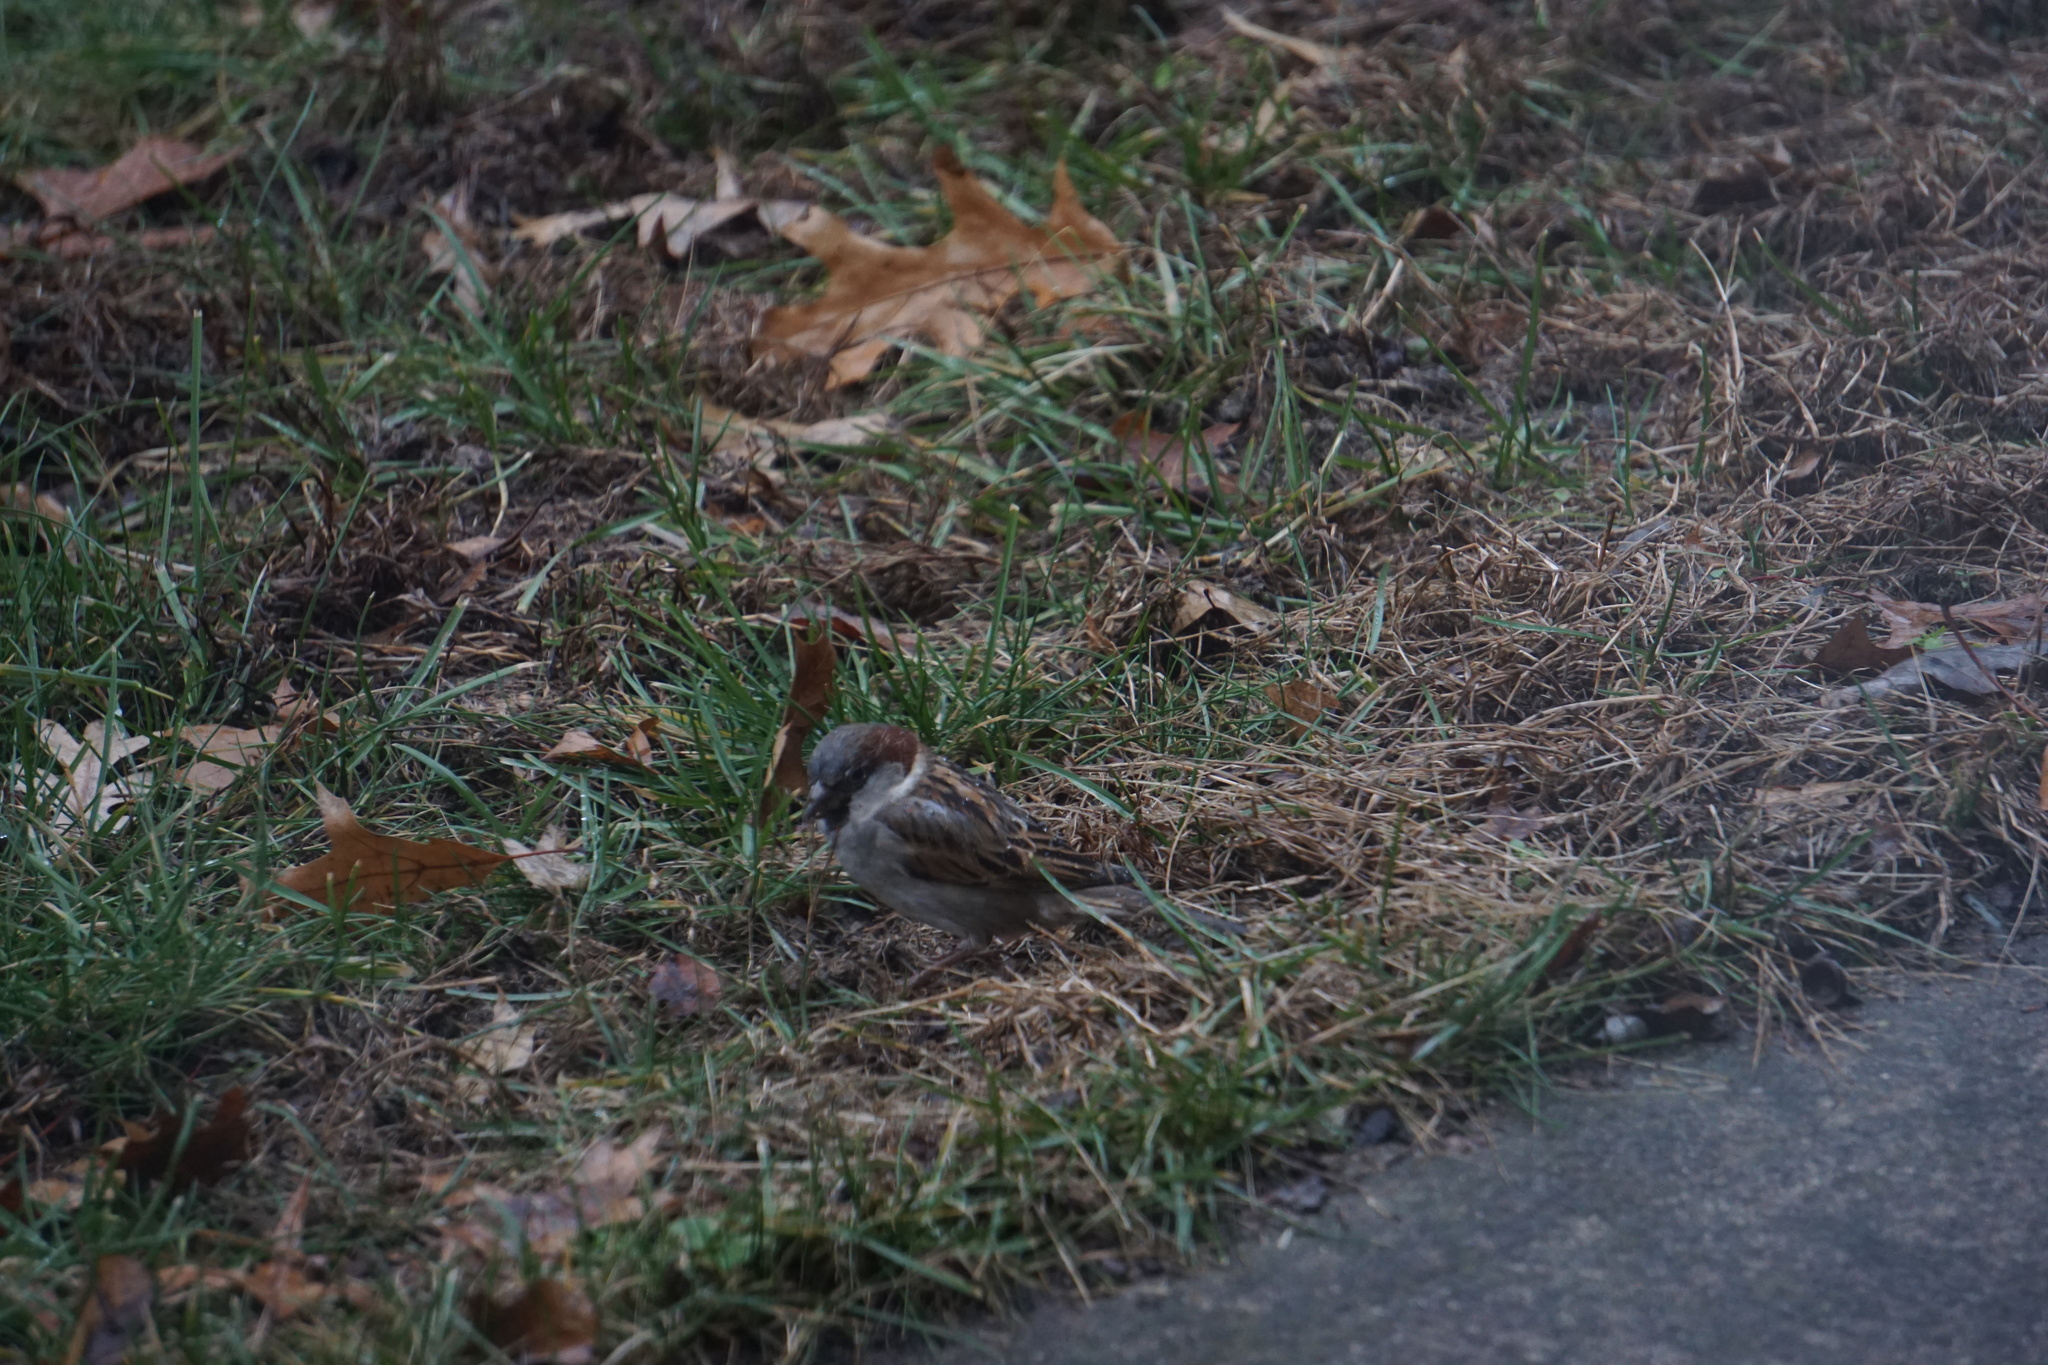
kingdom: Animalia
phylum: Chordata
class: Aves
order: Passeriformes
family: Passeridae
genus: Passer
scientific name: Passer domesticus
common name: House sparrow
